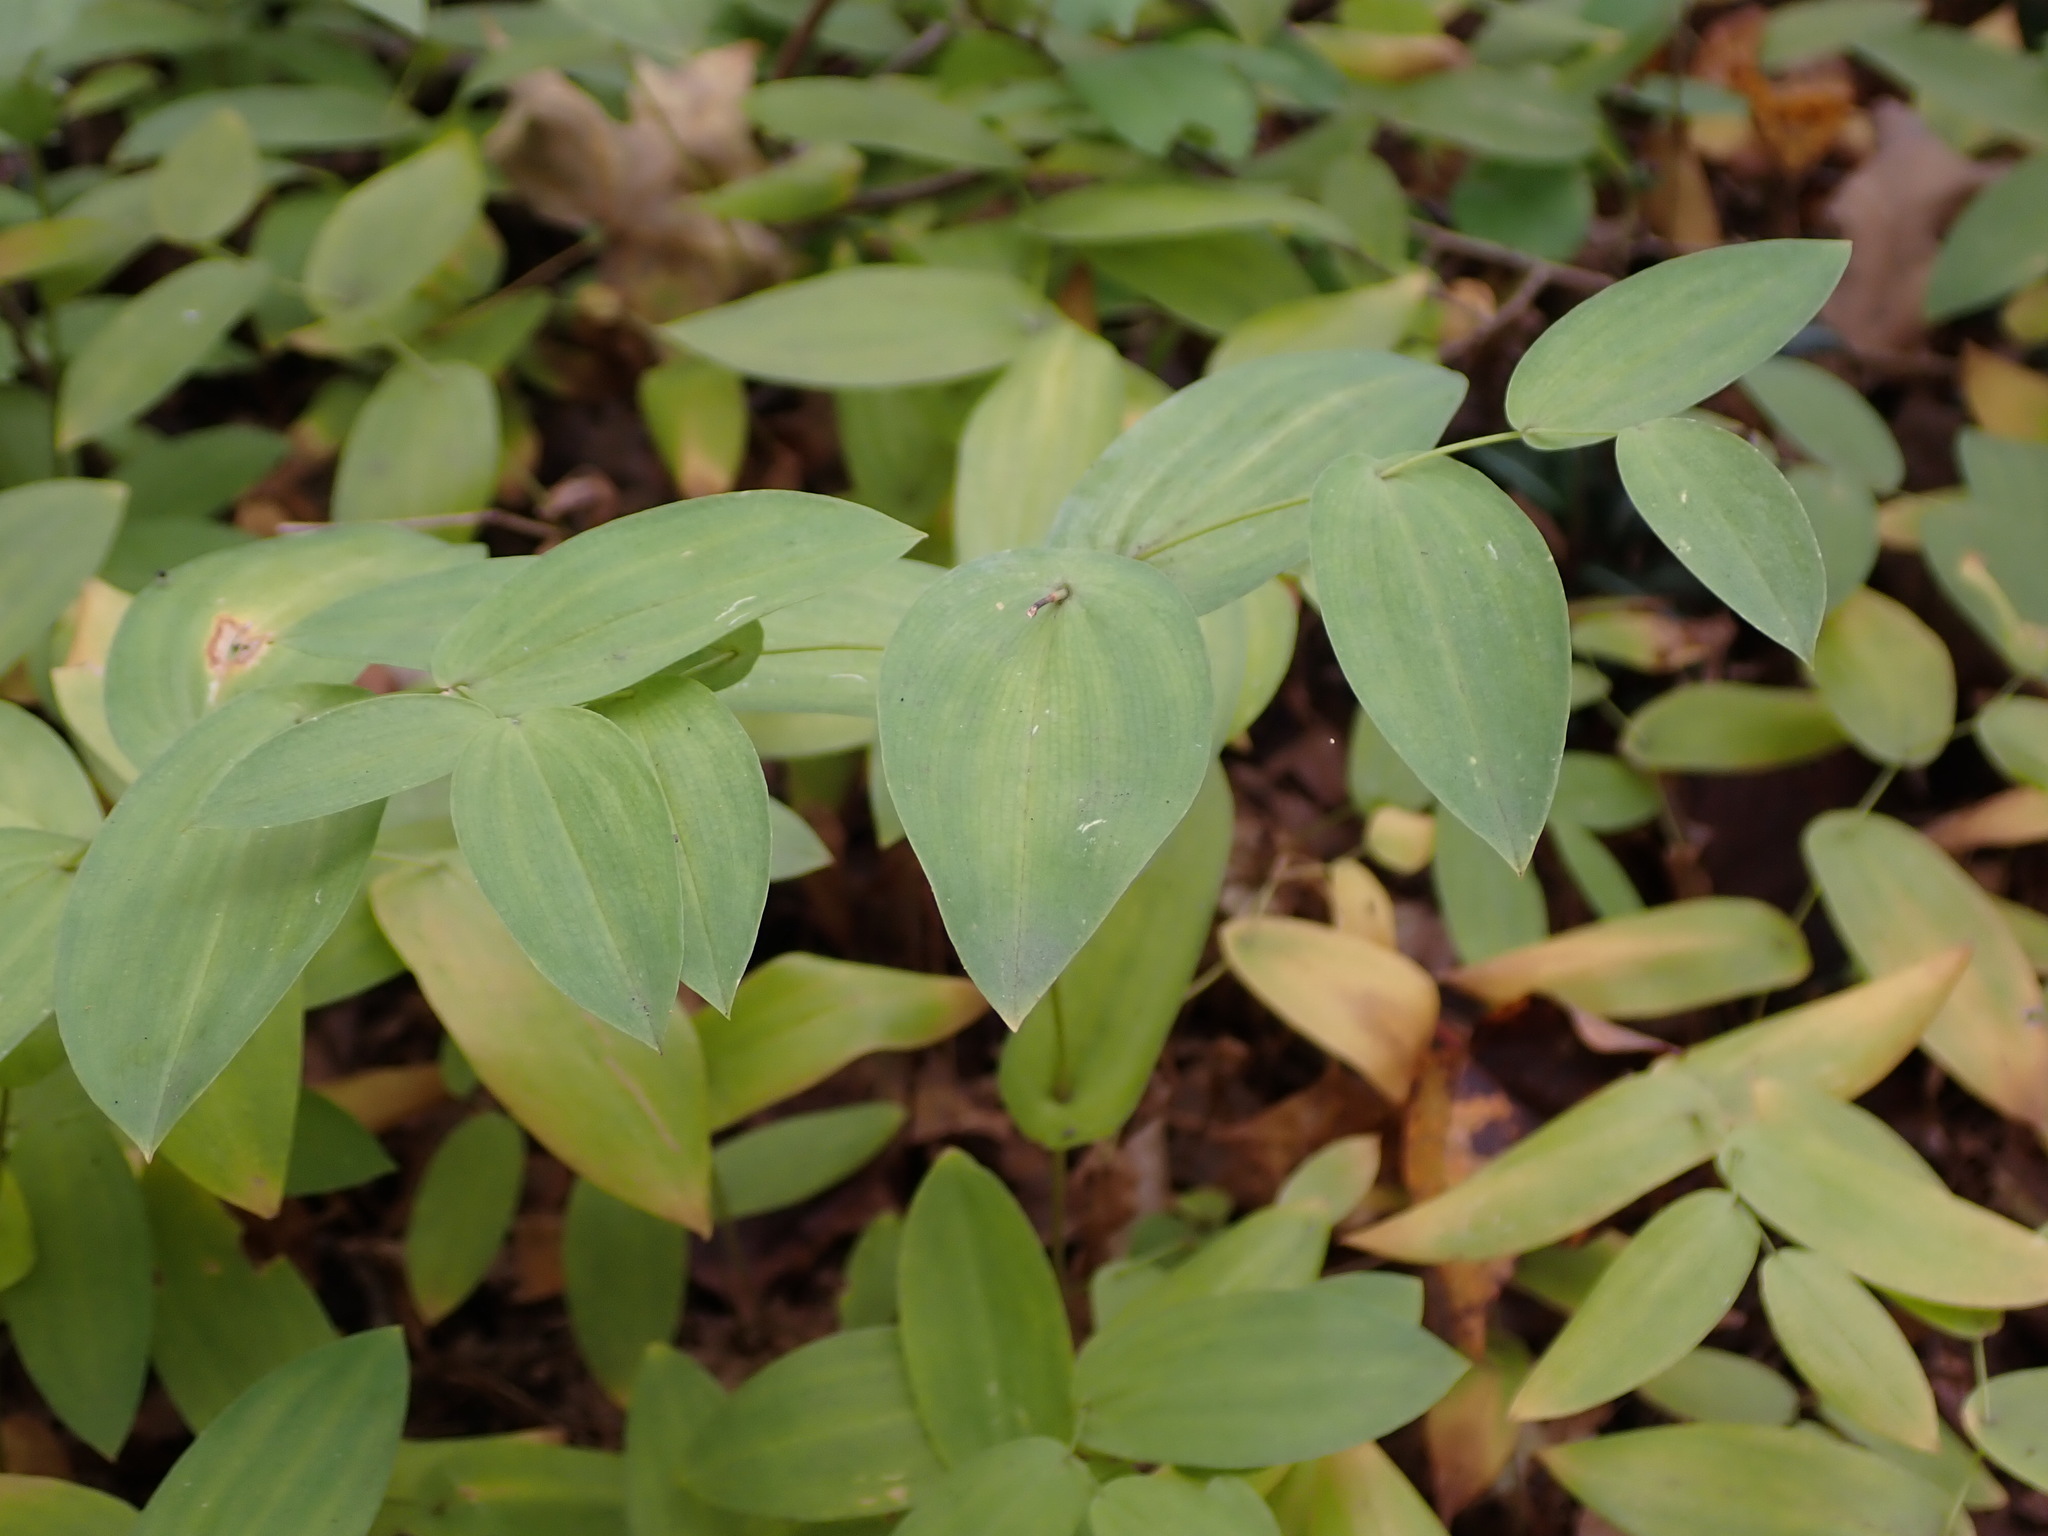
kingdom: Plantae
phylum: Tracheophyta
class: Liliopsida
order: Liliales
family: Colchicaceae
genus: Uvularia
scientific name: Uvularia perfoliata
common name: Perfoliate bellwort
